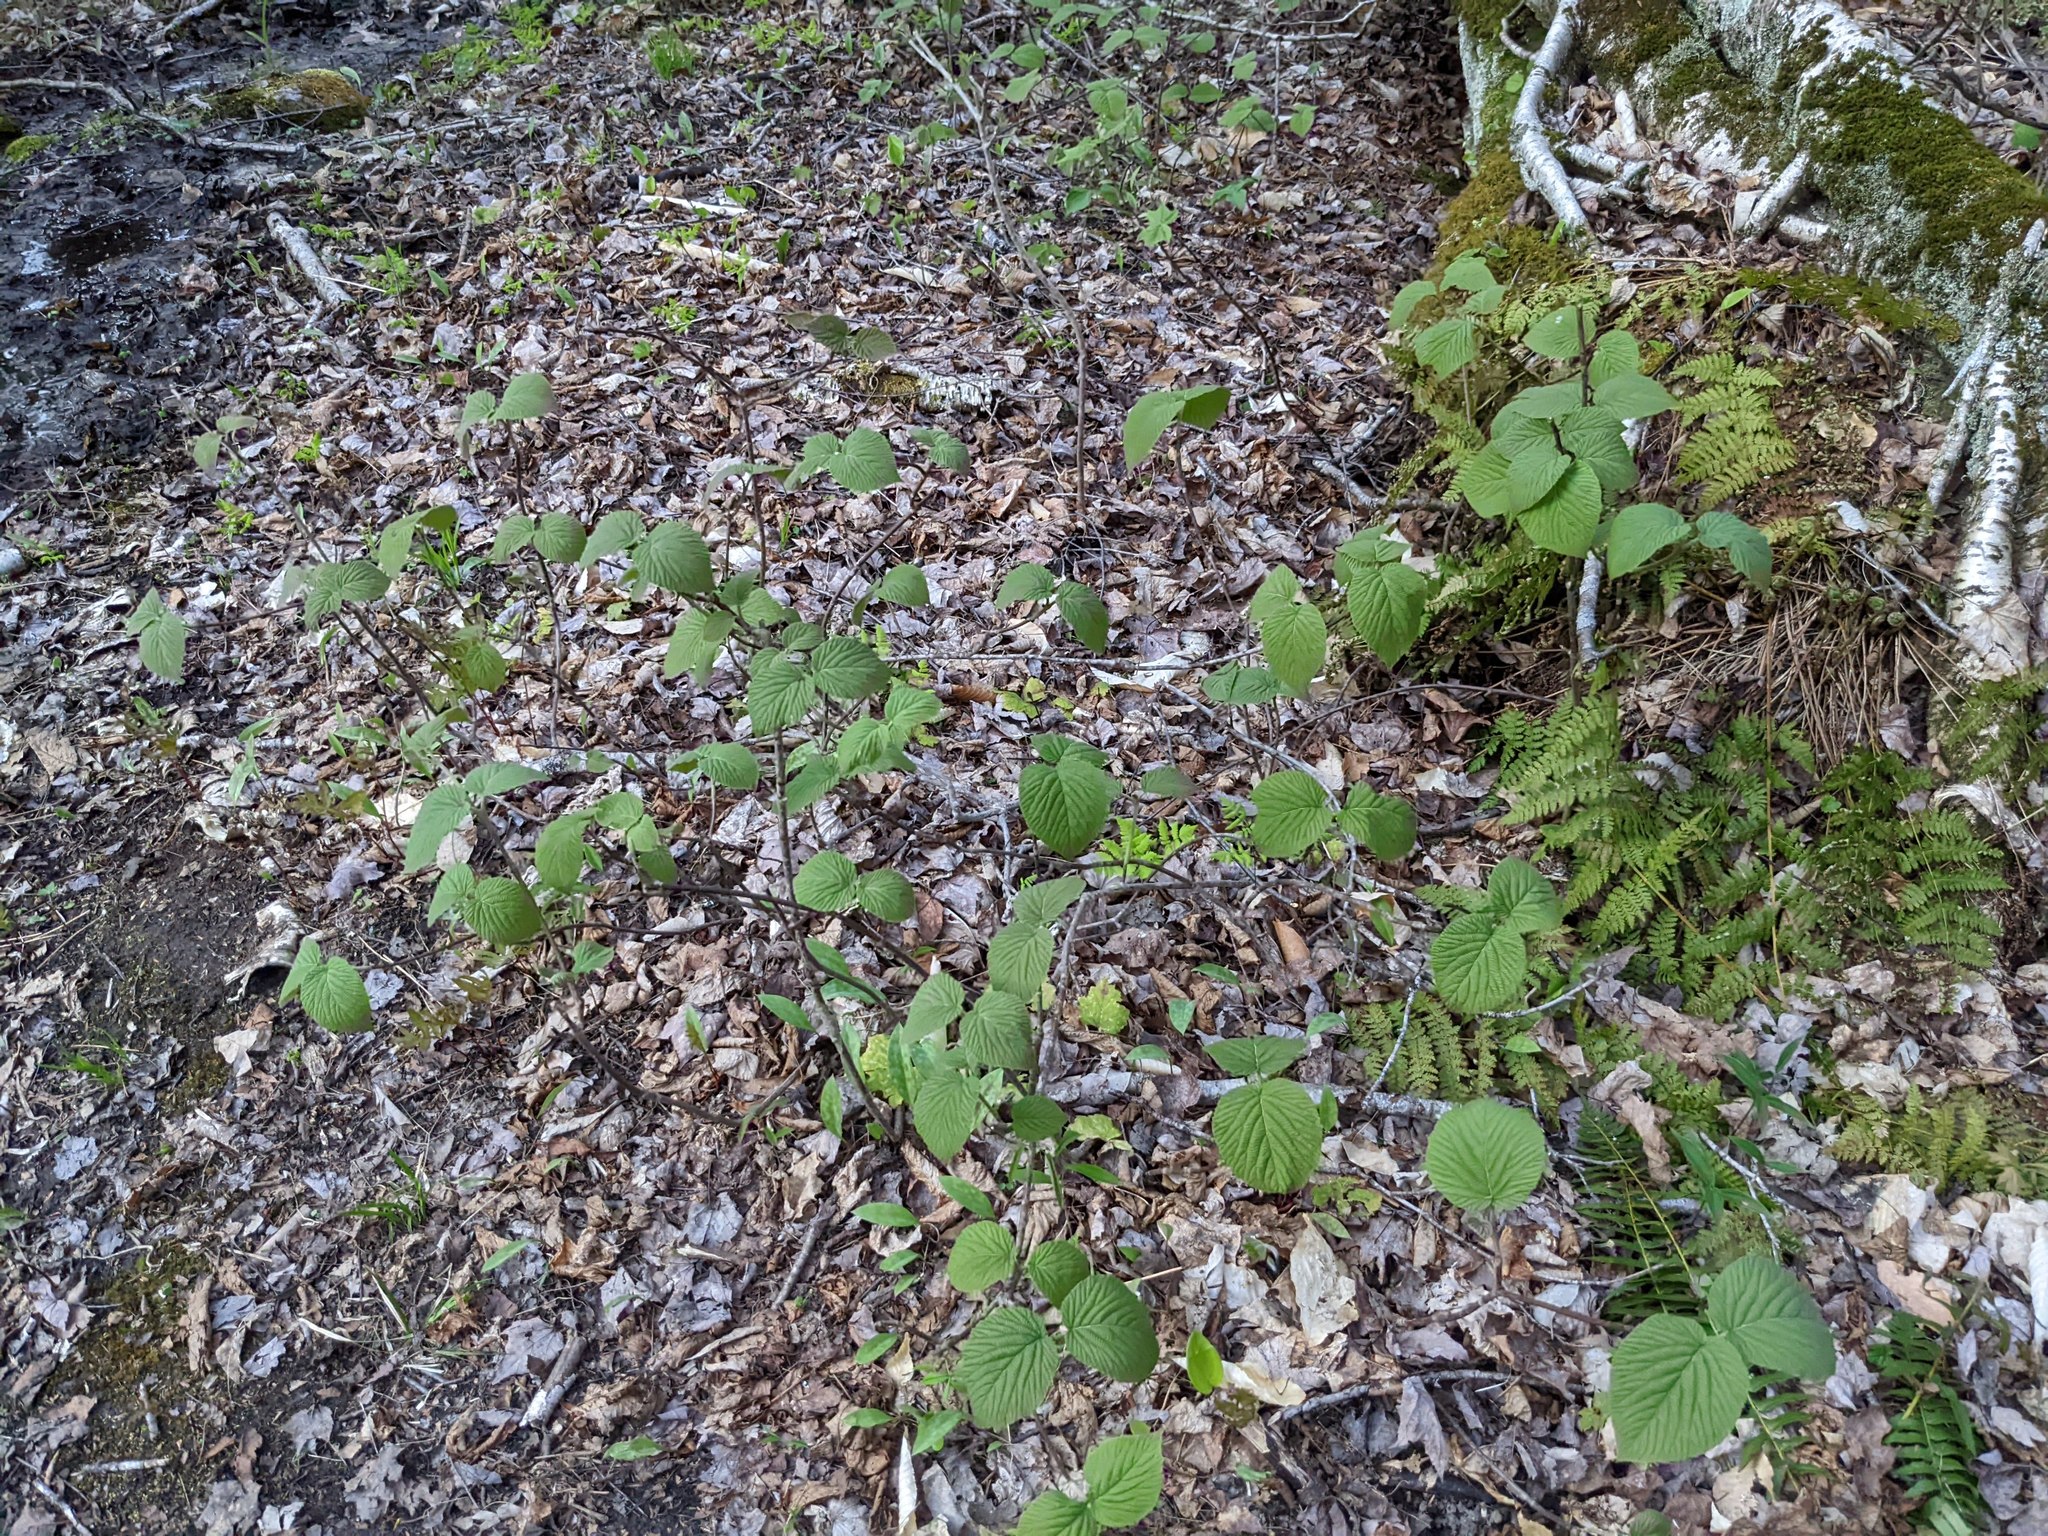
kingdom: Plantae
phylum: Tracheophyta
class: Magnoliopsida
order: Dipsacales
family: Viburnaceae
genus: Viburnum
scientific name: Viburnum lantanoides
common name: Hobblebush
